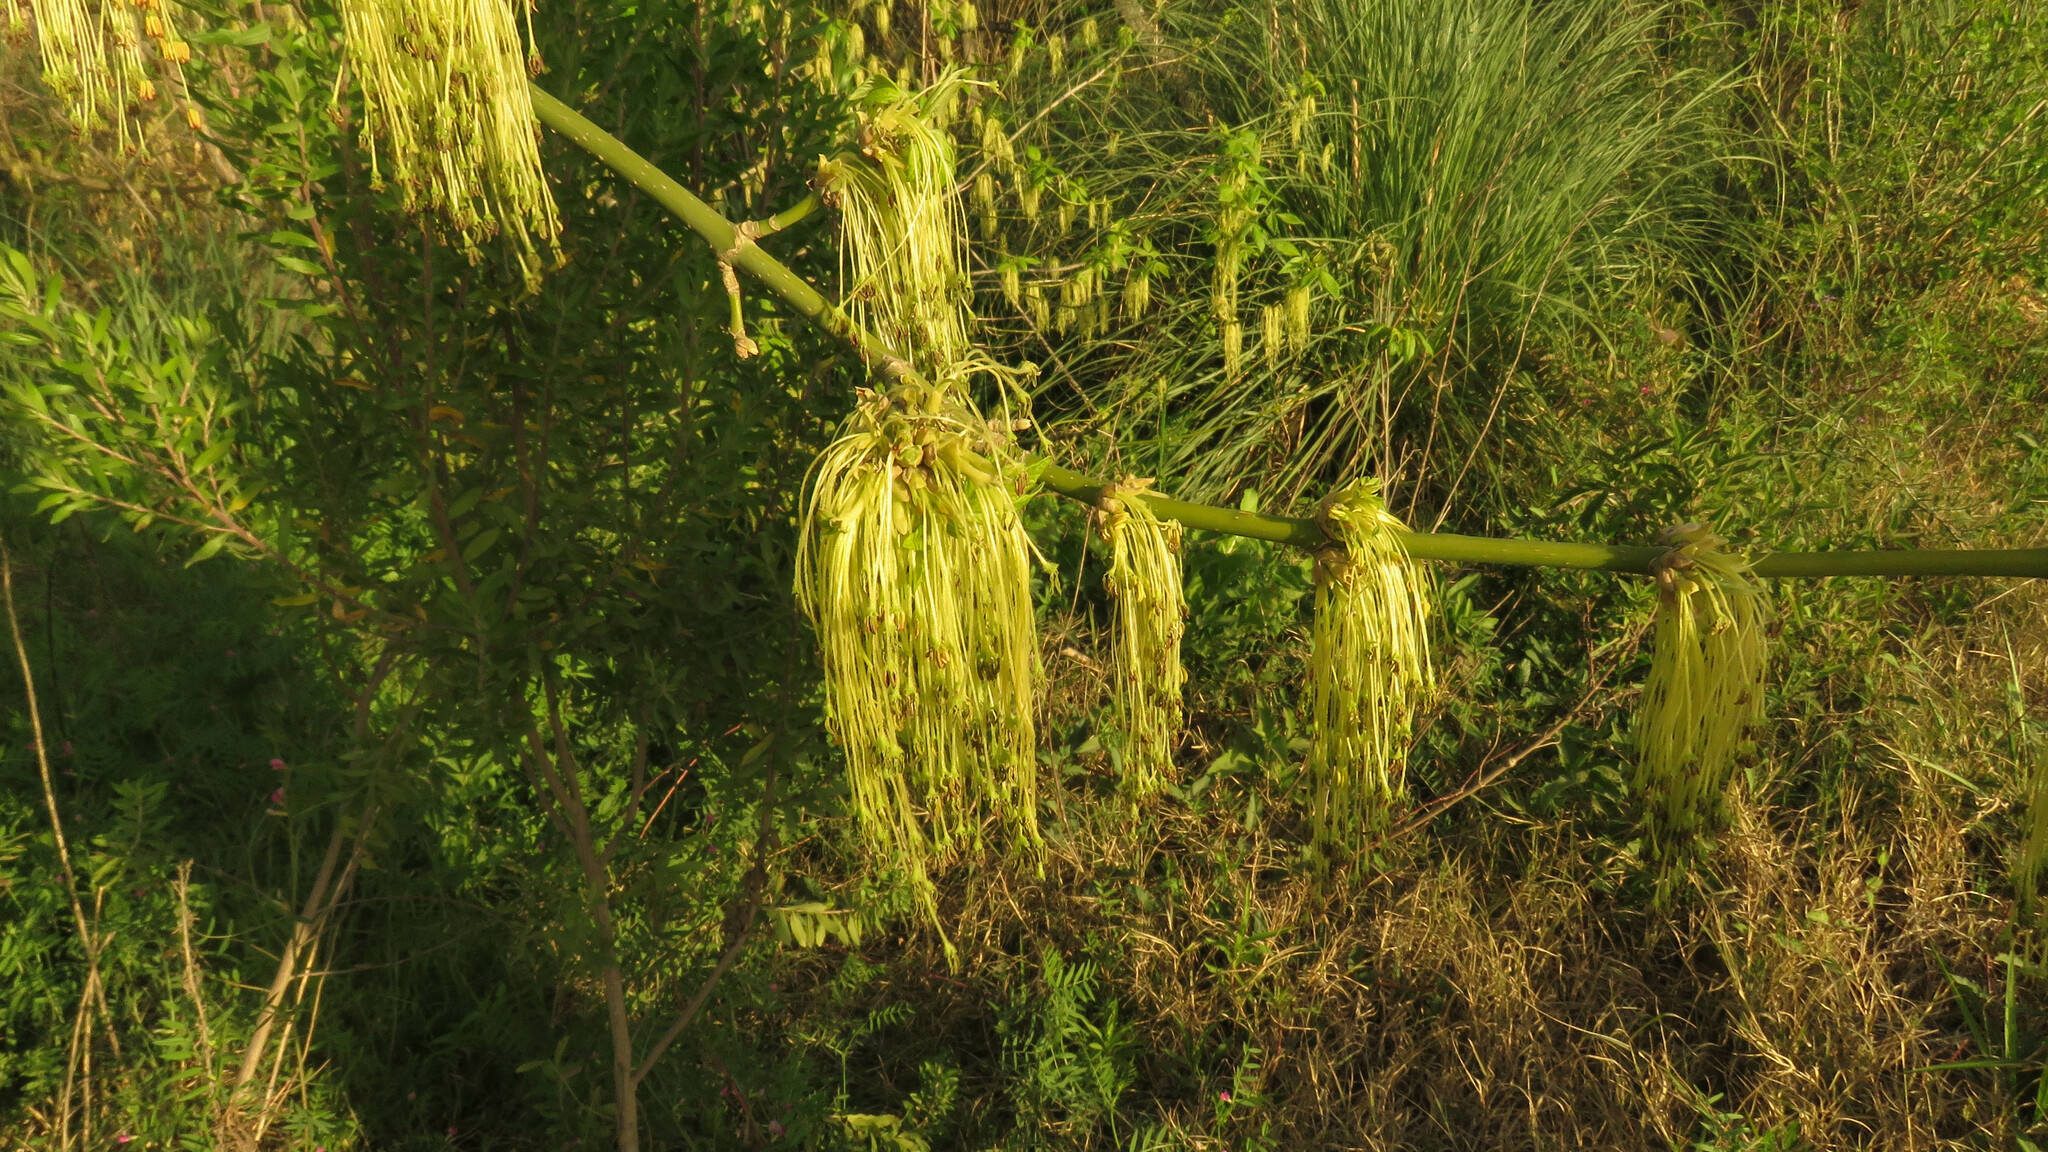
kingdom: Plantae
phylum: Tracheophyta
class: Magnoliopsida
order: Sapindales
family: Sapindaceae
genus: Acer
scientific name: Acer negundo
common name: Ashleaf maple
